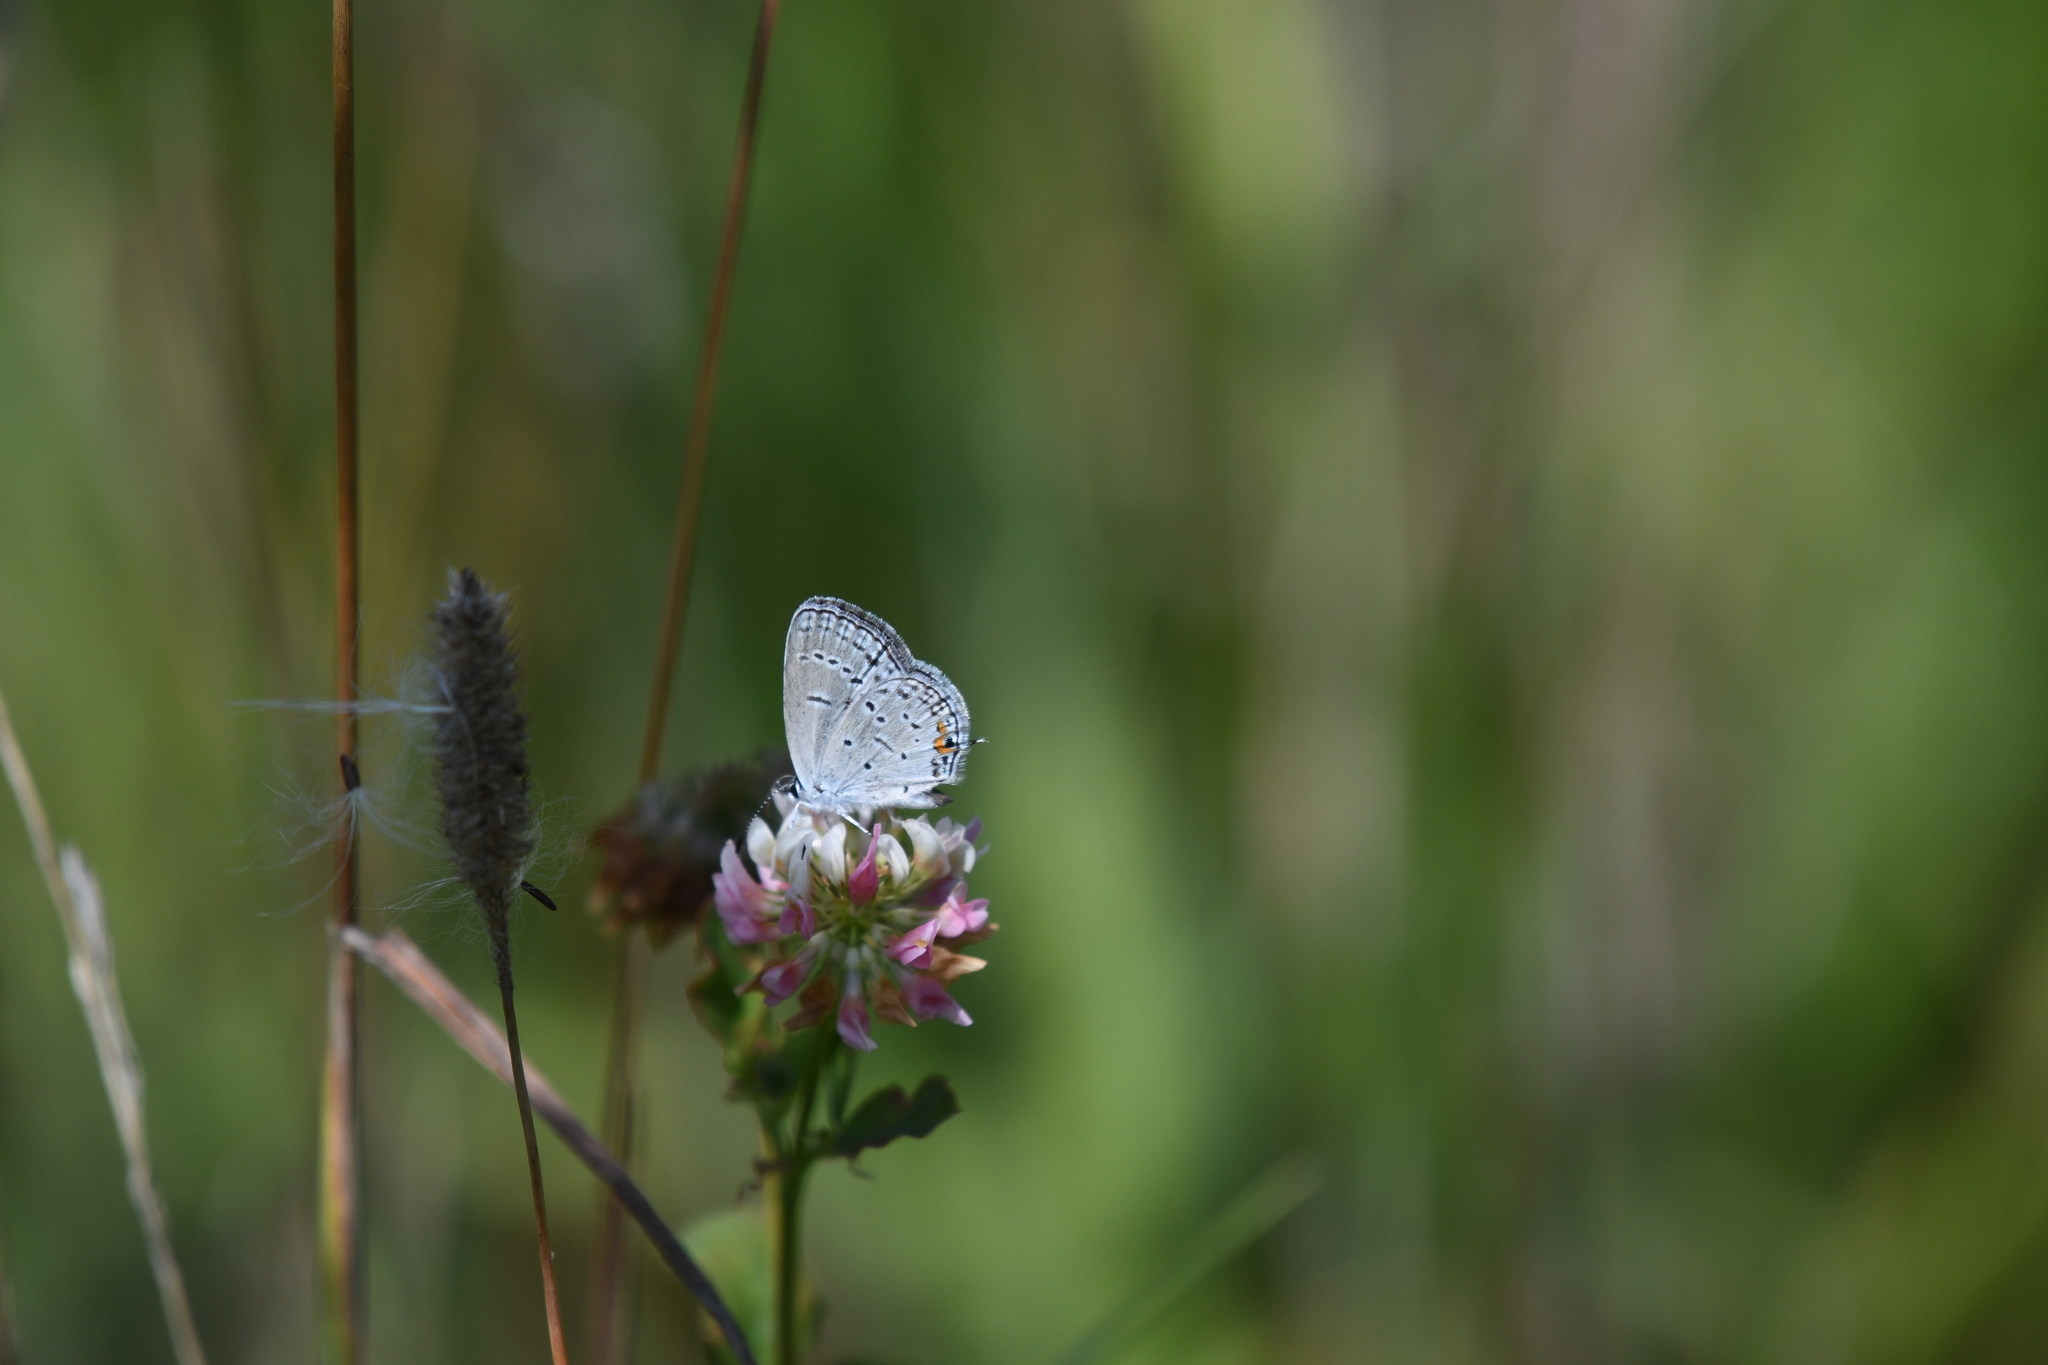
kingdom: Animalia
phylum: Arthropoda
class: Insecta
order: Lepidoptera
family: Lycaenidae
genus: Elkalyce
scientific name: Elkalyce comyntas
